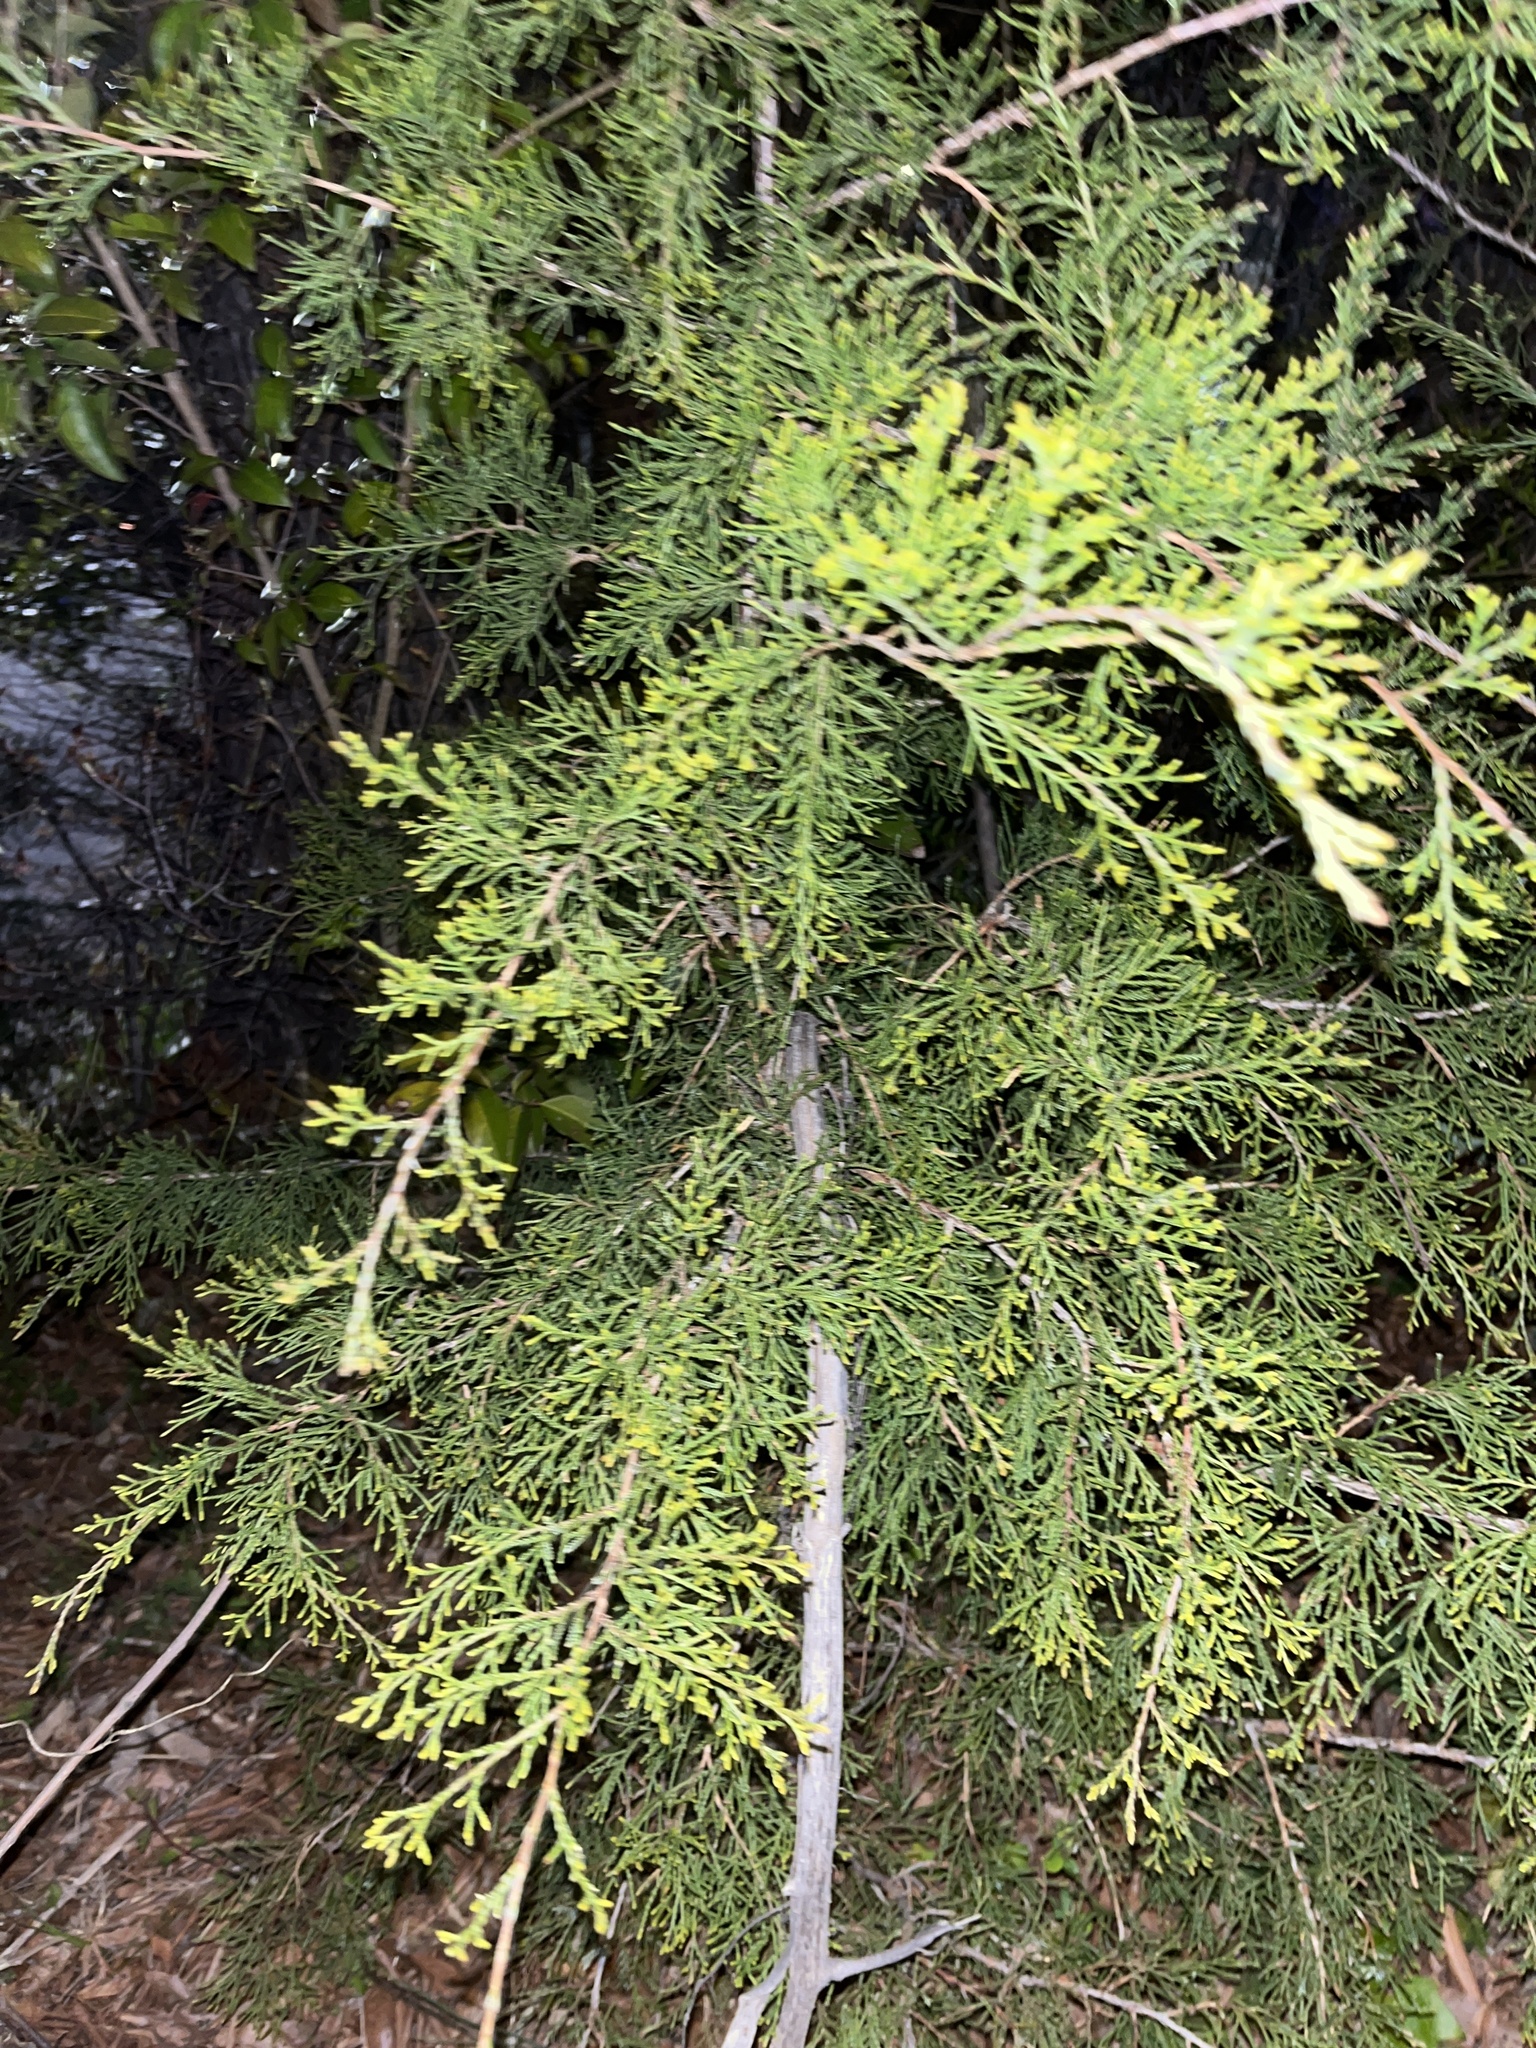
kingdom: Plantae
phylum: Tracheophyta
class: Pinopsida
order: Pinales
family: Cupressaceae
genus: Juniperus
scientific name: Juniperus virginiana
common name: Red juniper
